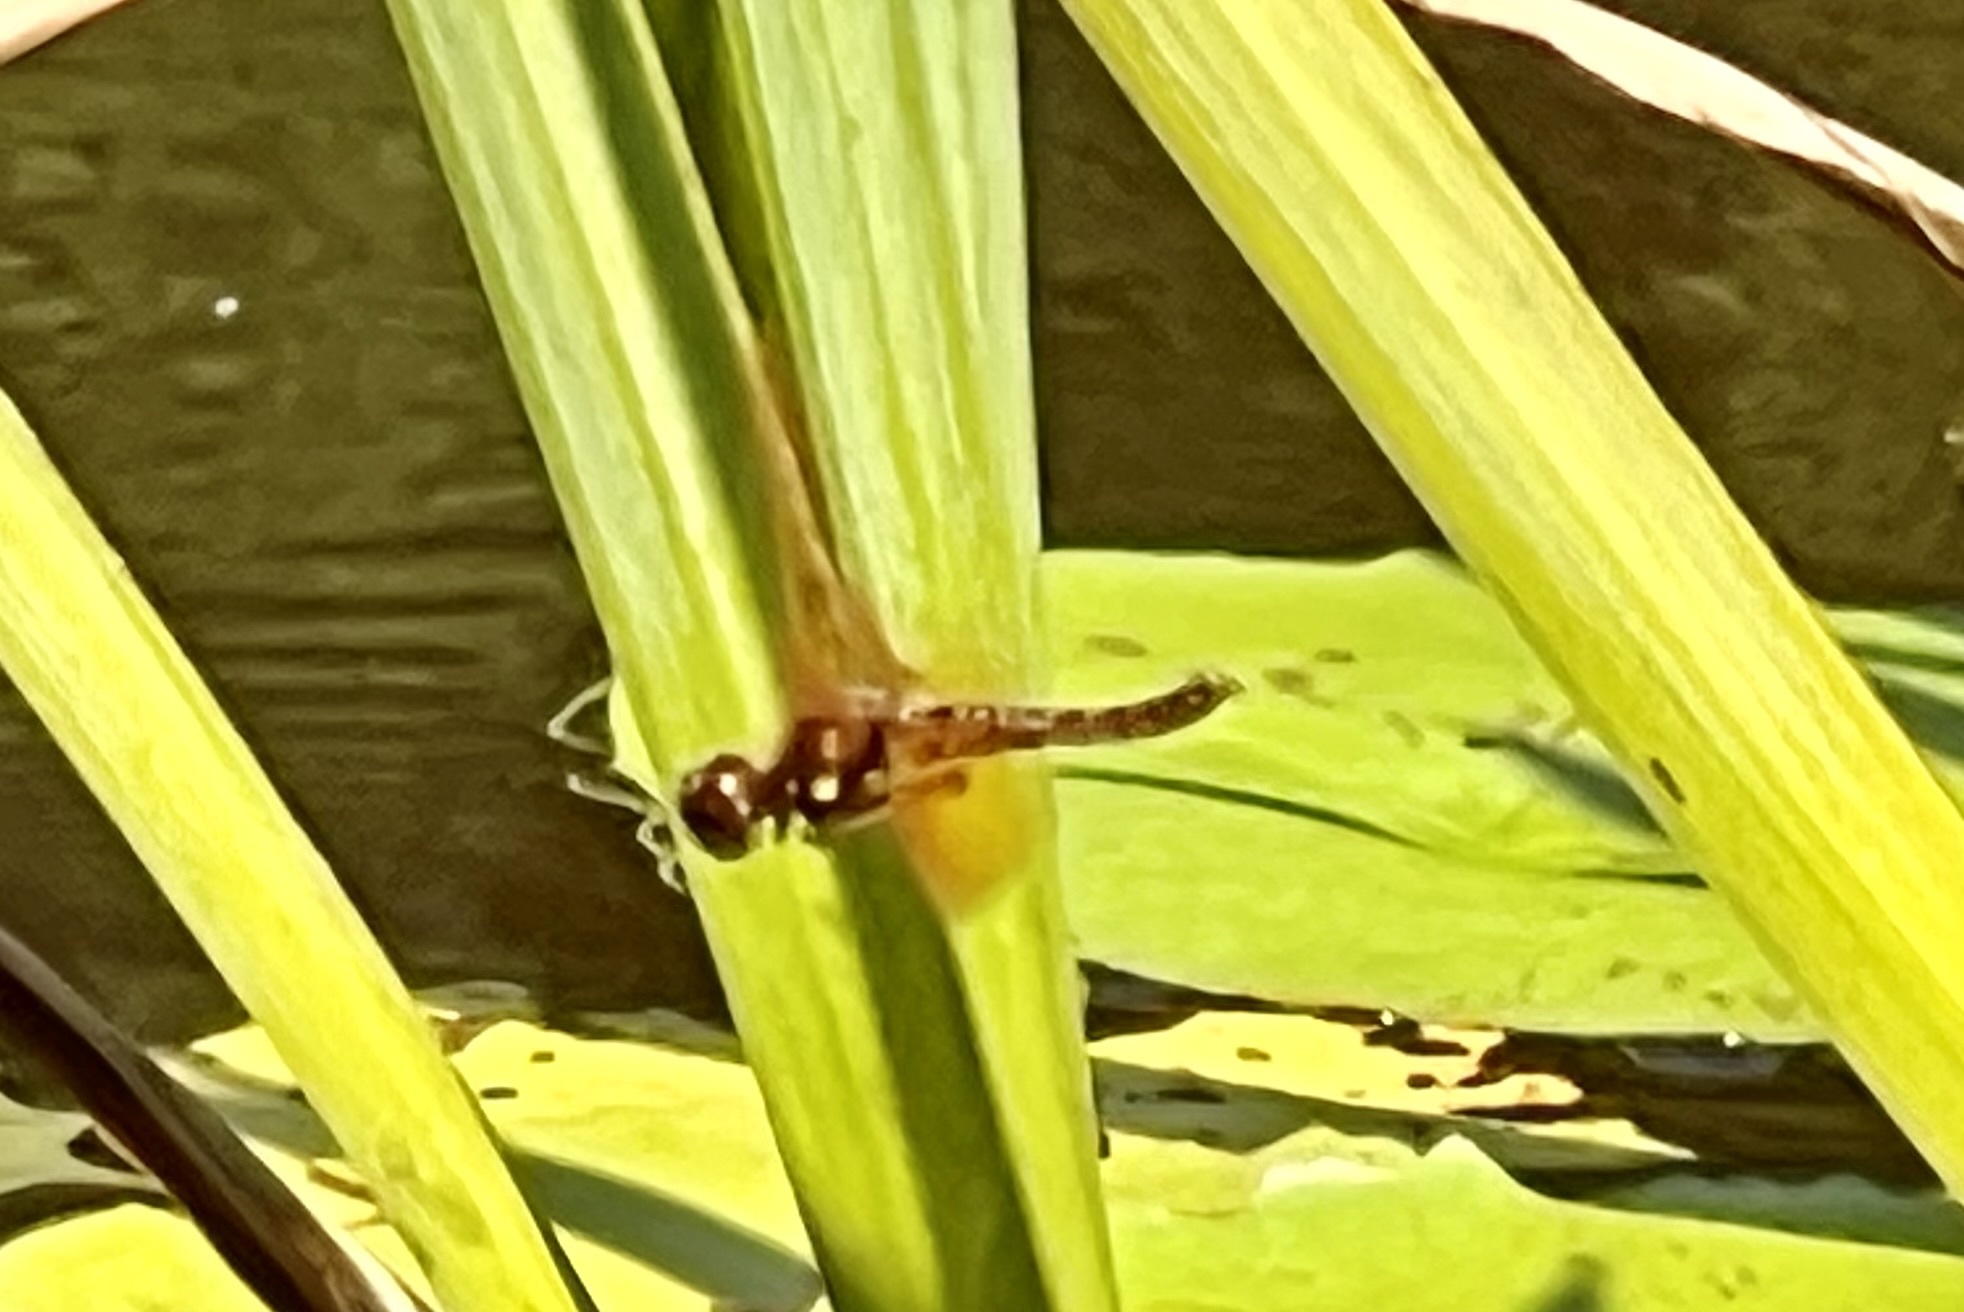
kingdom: Animalia
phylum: Arthropoda
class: Insecta
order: Odonata
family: Libellulidae
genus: Perithemis
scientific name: Perithemis tenera
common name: Eastern amberwing
